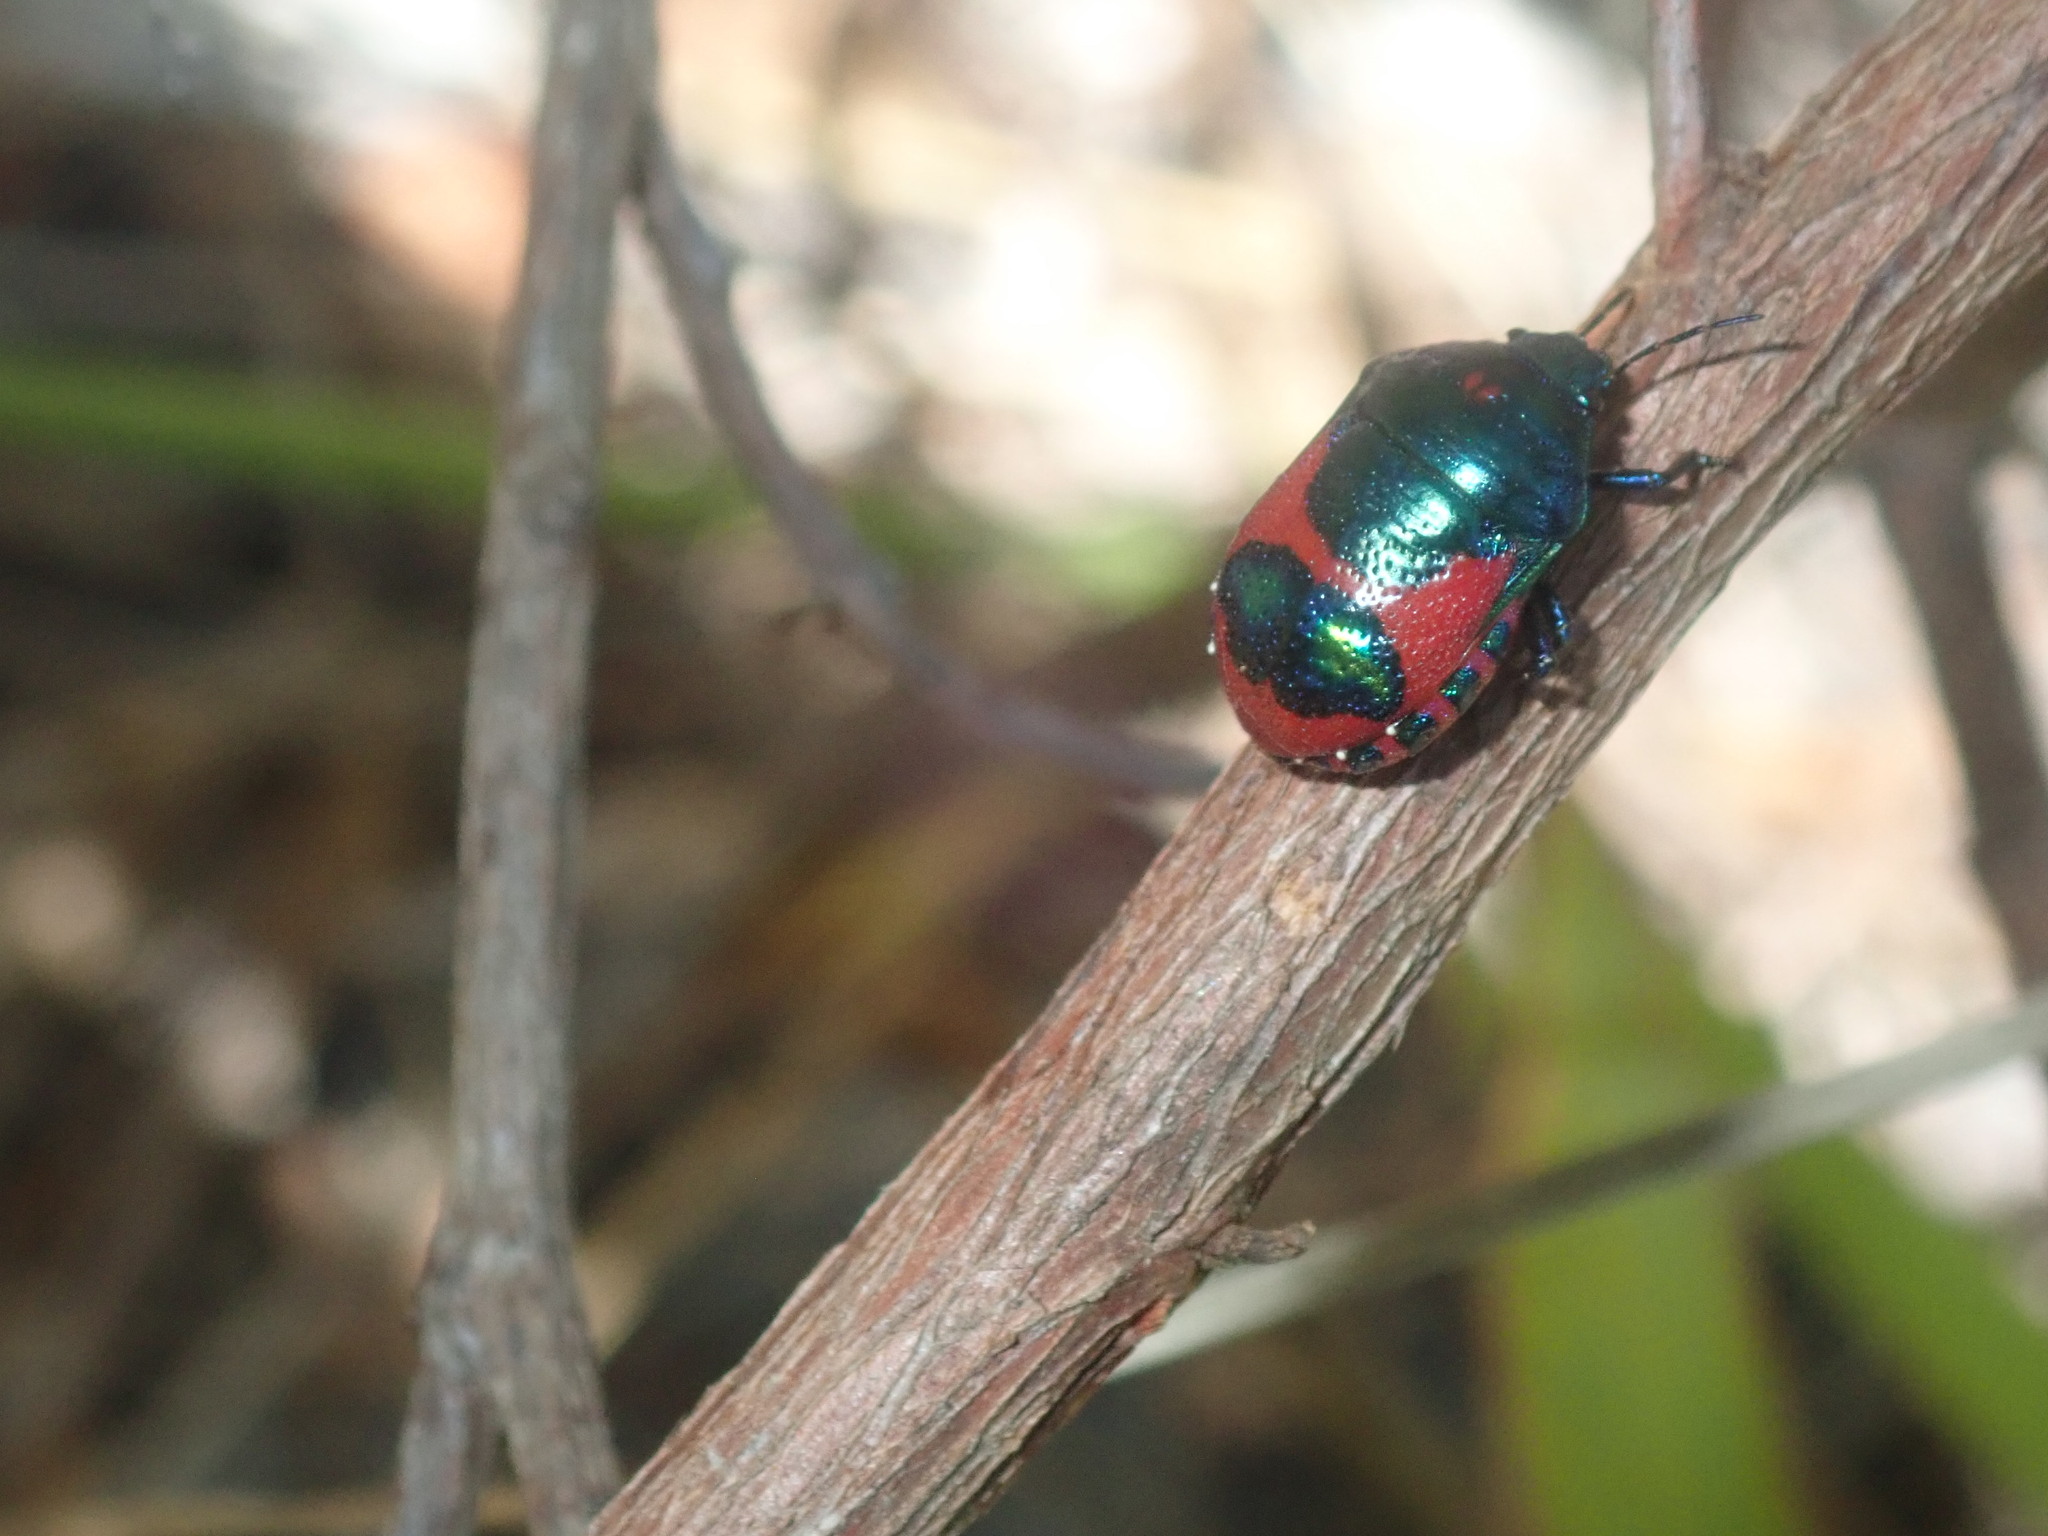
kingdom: Animalia
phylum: Arthropoda
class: Insecta
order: Hemiptera
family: Scutelleridae
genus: Choerocoris
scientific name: Choerocoris paganus
